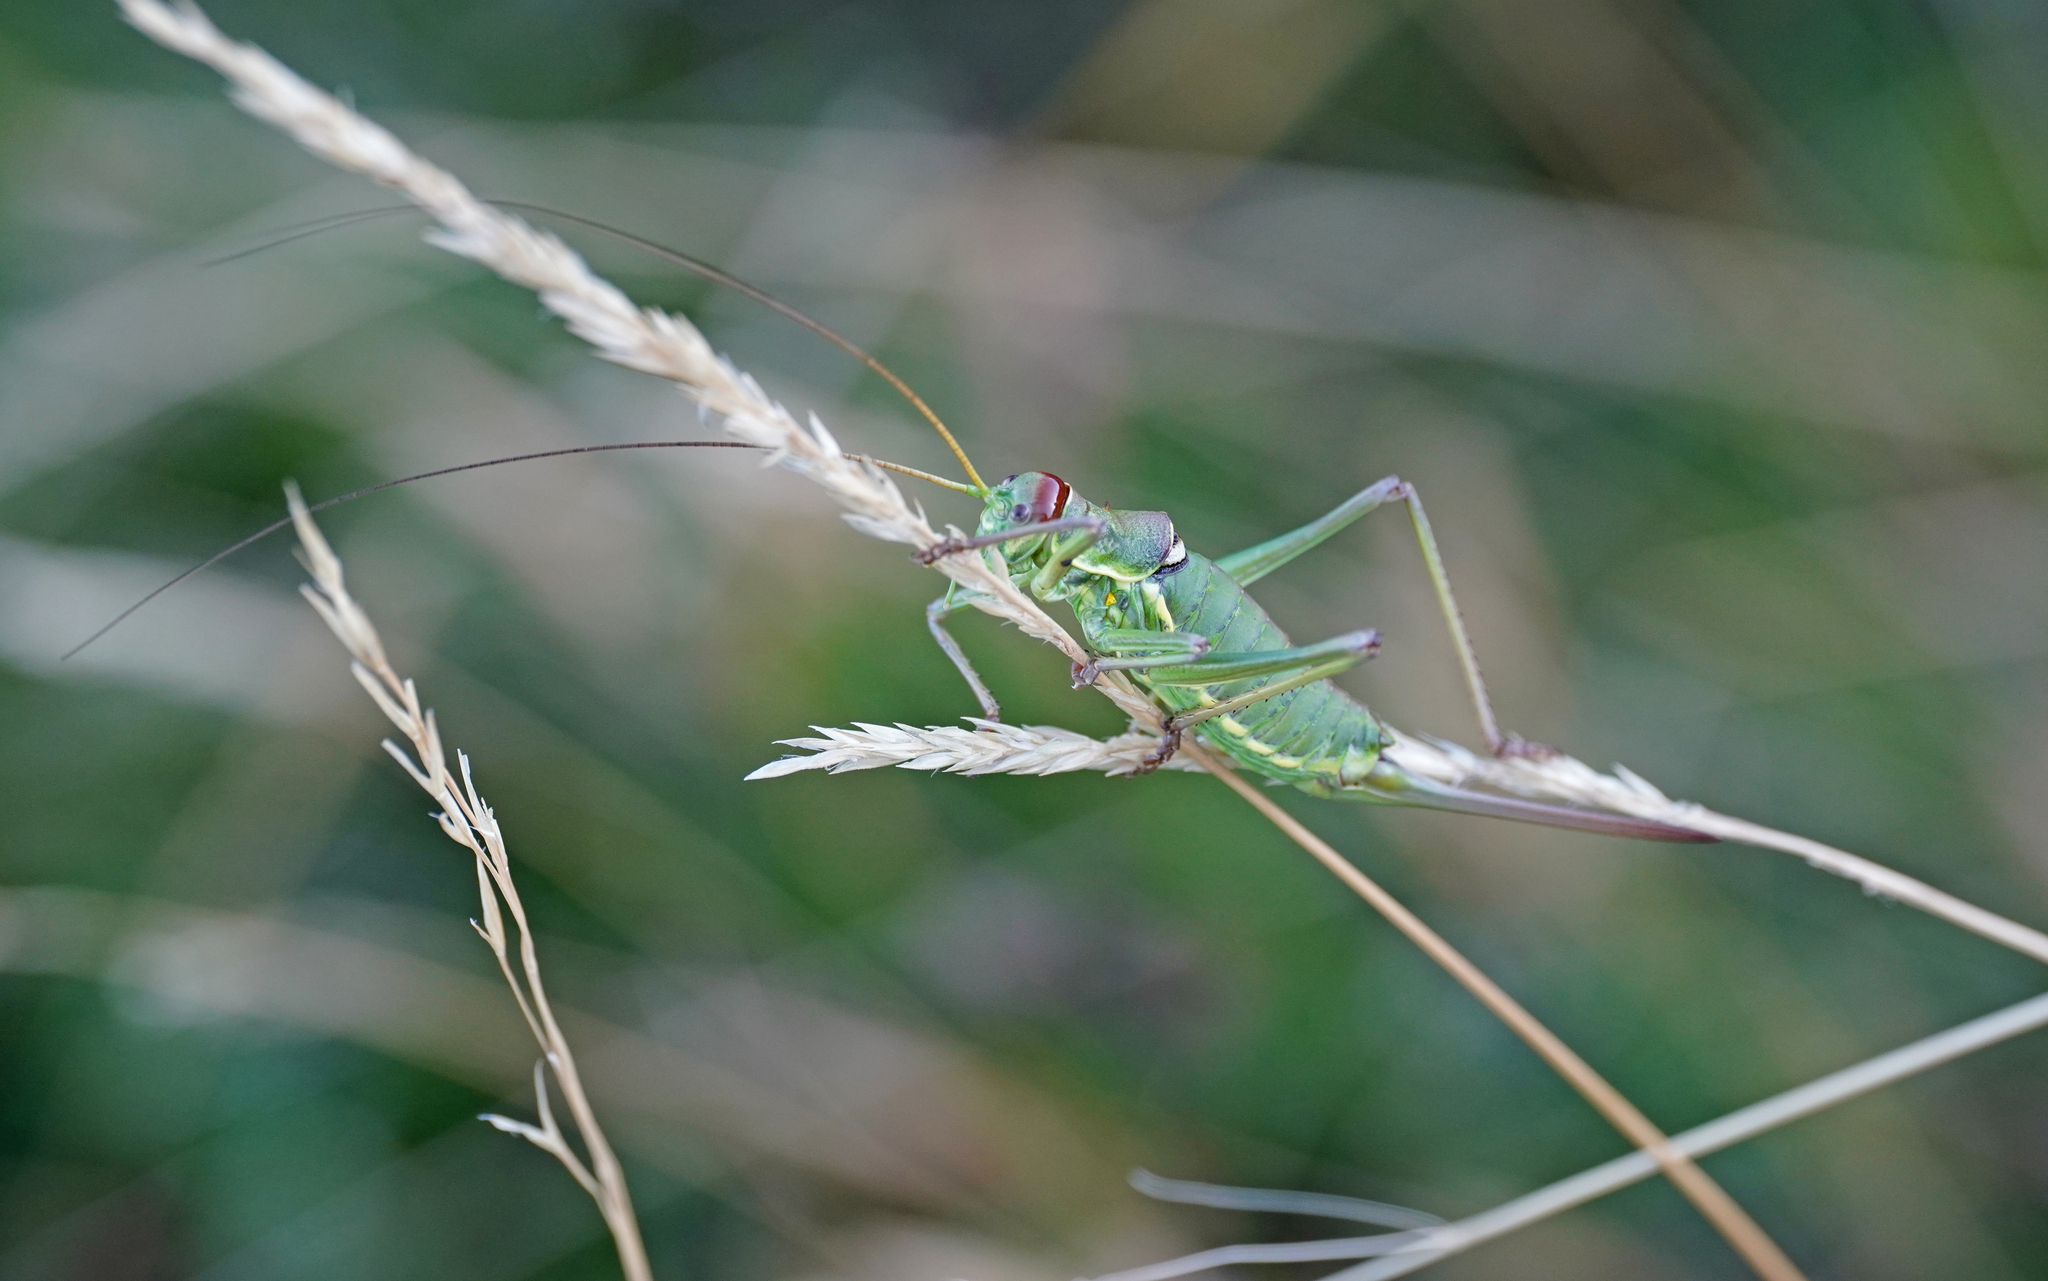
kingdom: Animalia
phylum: Arthropoda
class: Insecta
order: Orthoptera
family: Tettigoniidae
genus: Dinarippiger
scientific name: Dinarippiger discoidalis
